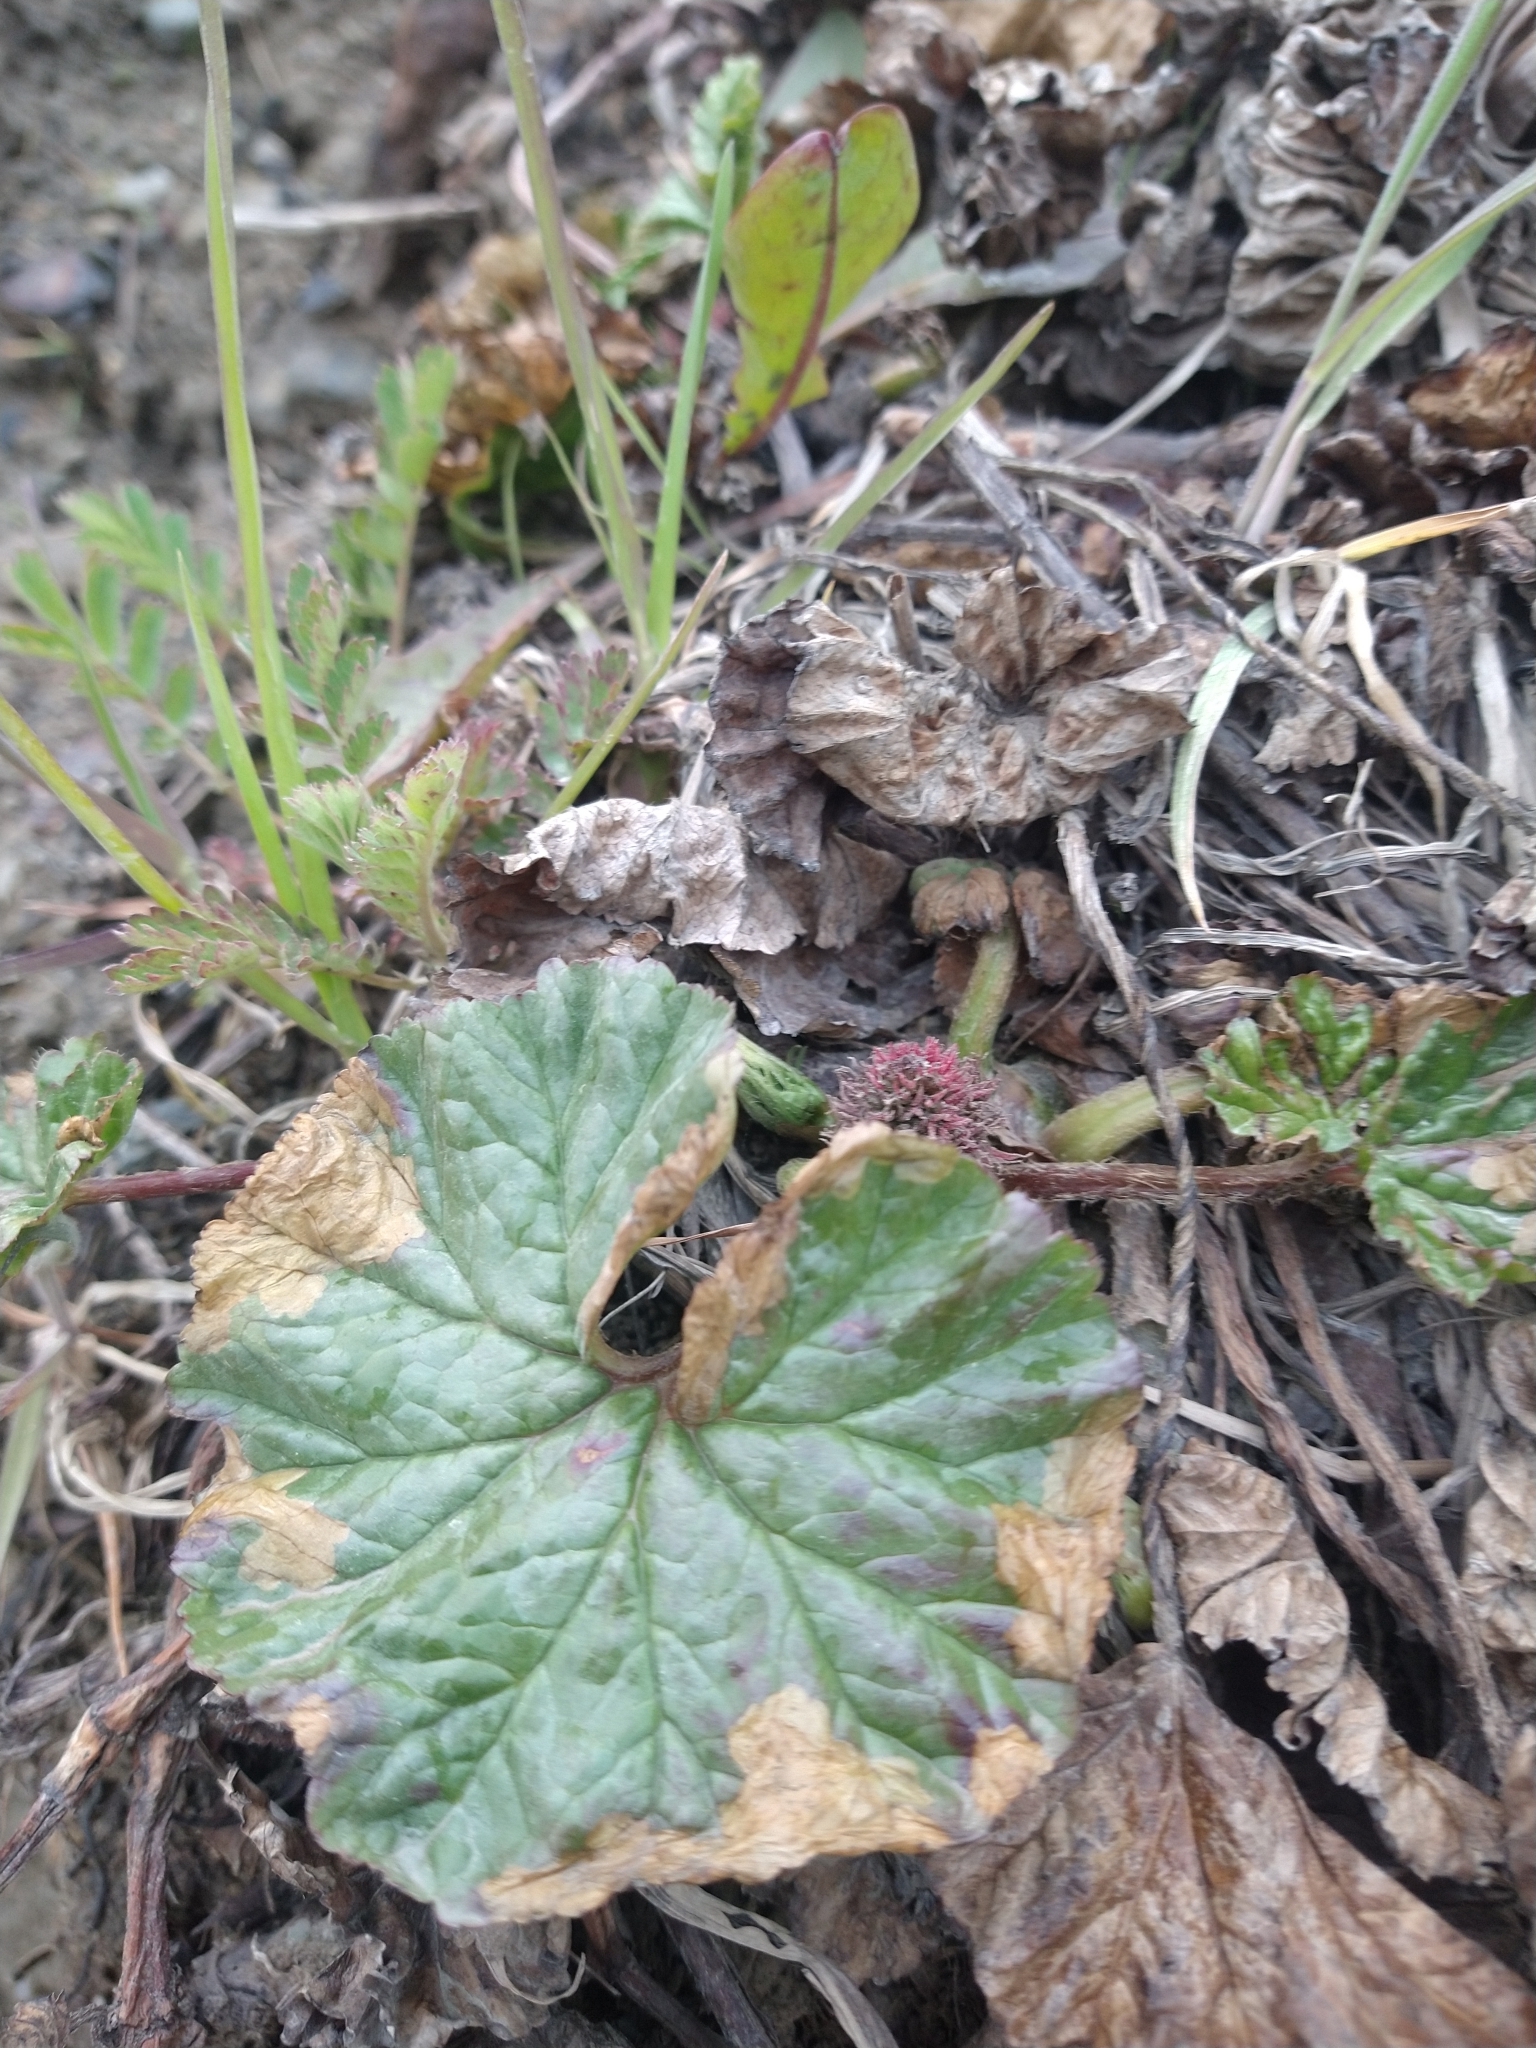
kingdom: Plantae
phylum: Tracheophyta
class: Magnoliopsida
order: Gunnerales
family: Gunneraceae
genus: Gunnera
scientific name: Gunnera magellanica
